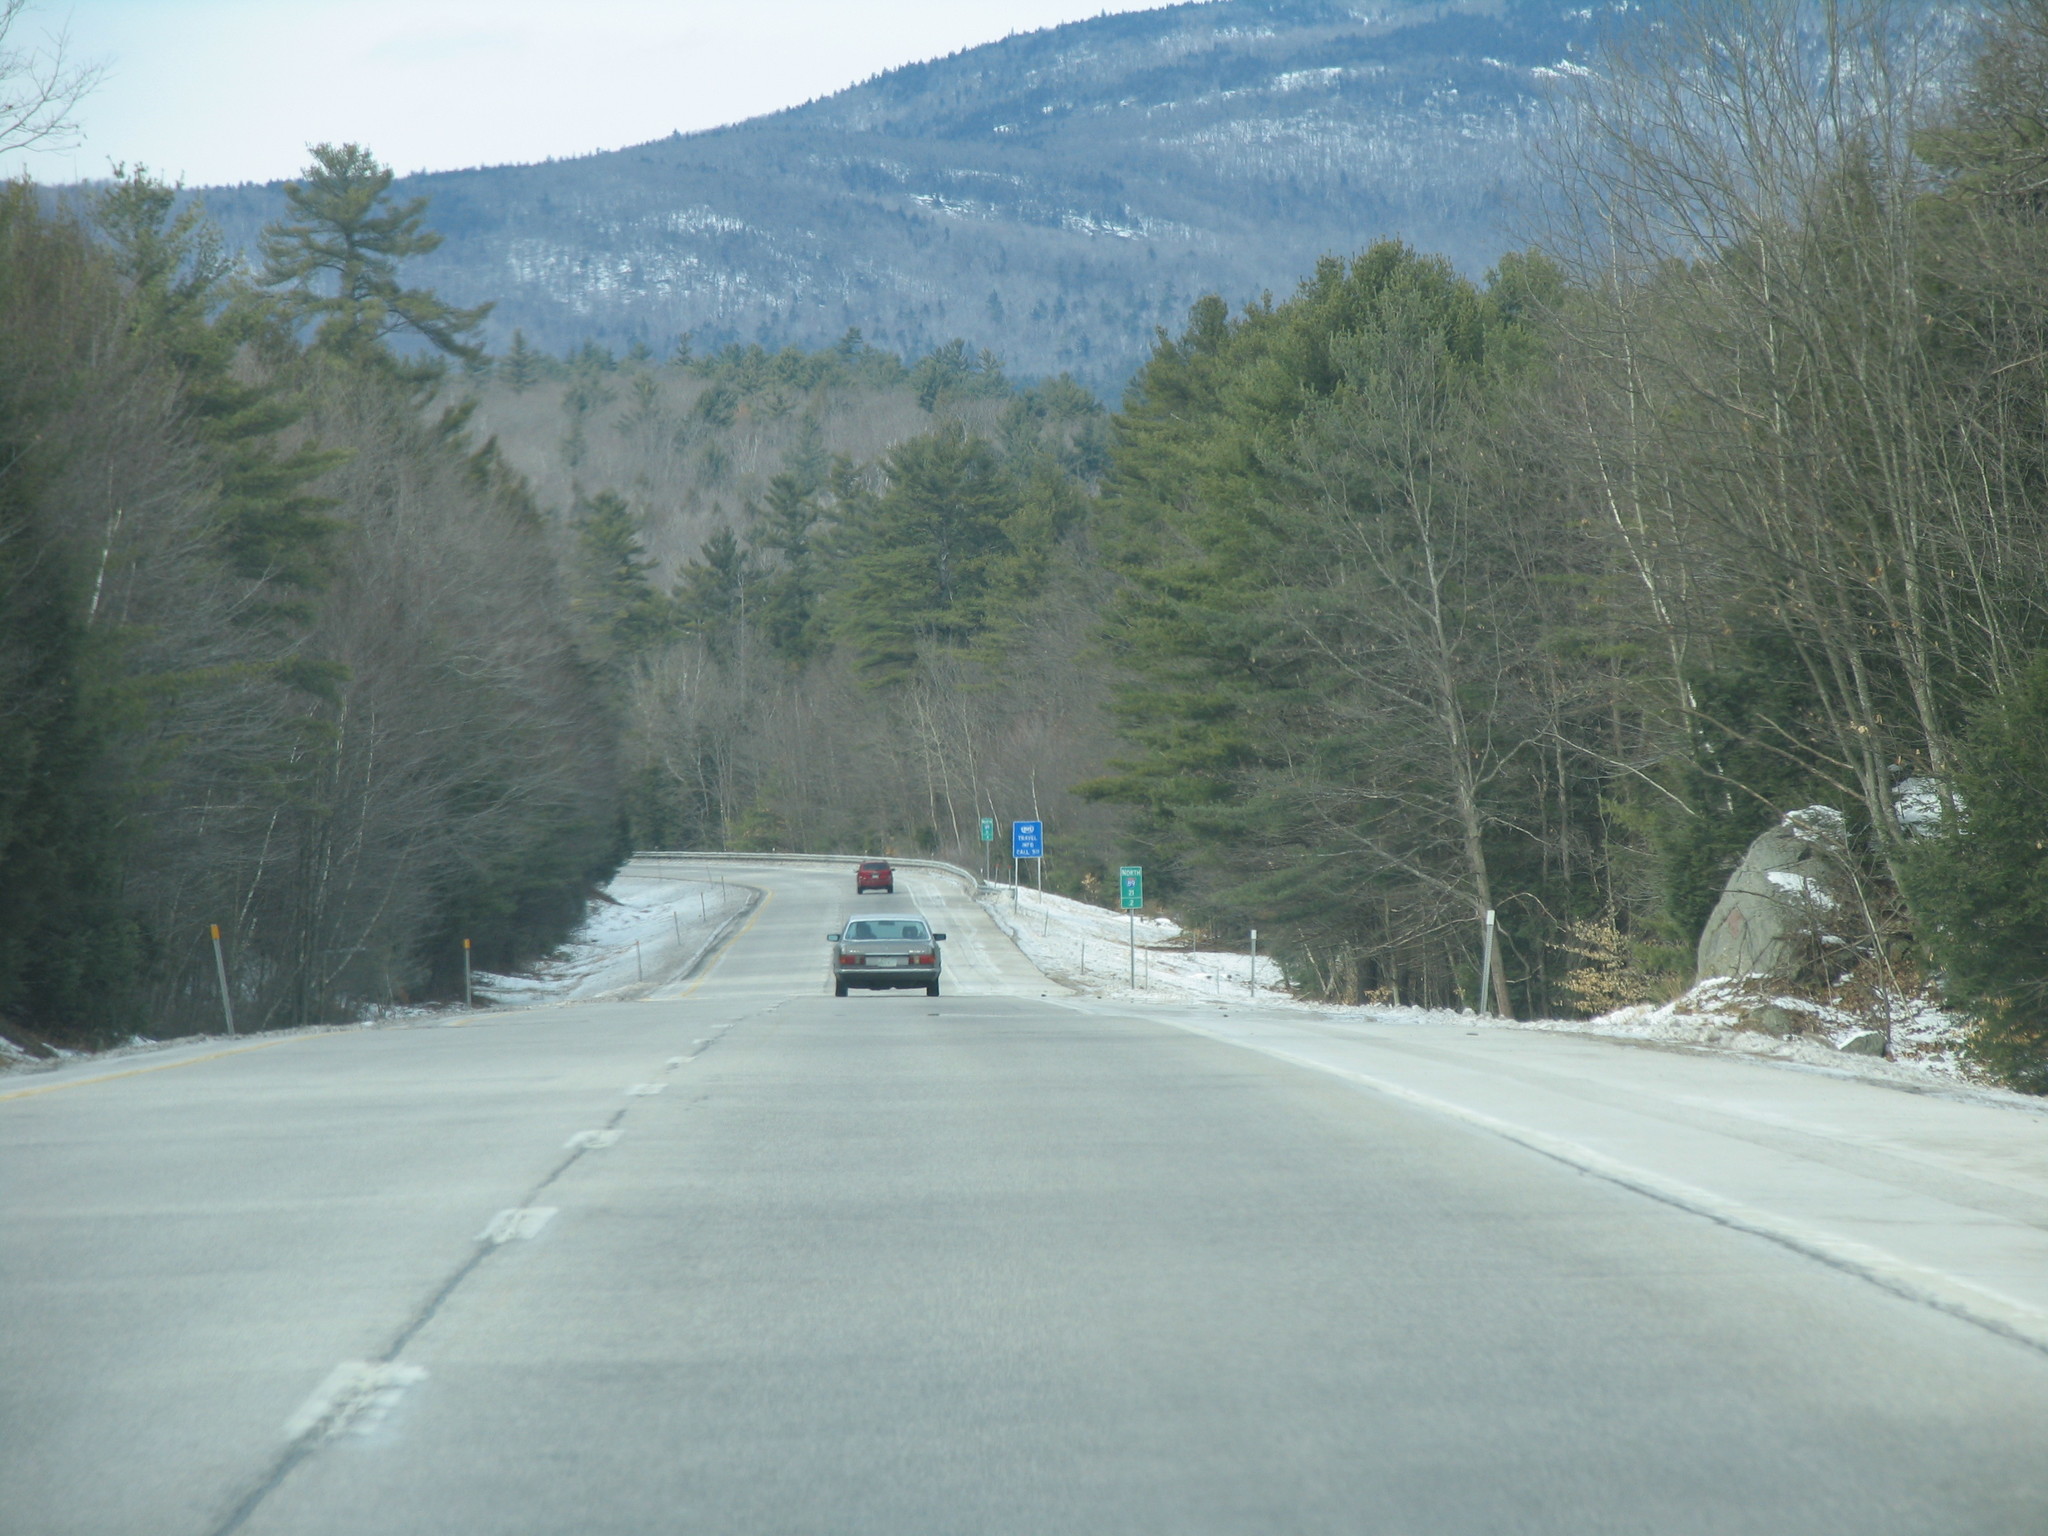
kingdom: Plantae
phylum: Tracheophyta
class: Pinopsida
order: Pinales
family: Pinaceae
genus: Pinus
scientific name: Pinus strobus
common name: Weymouth pine
